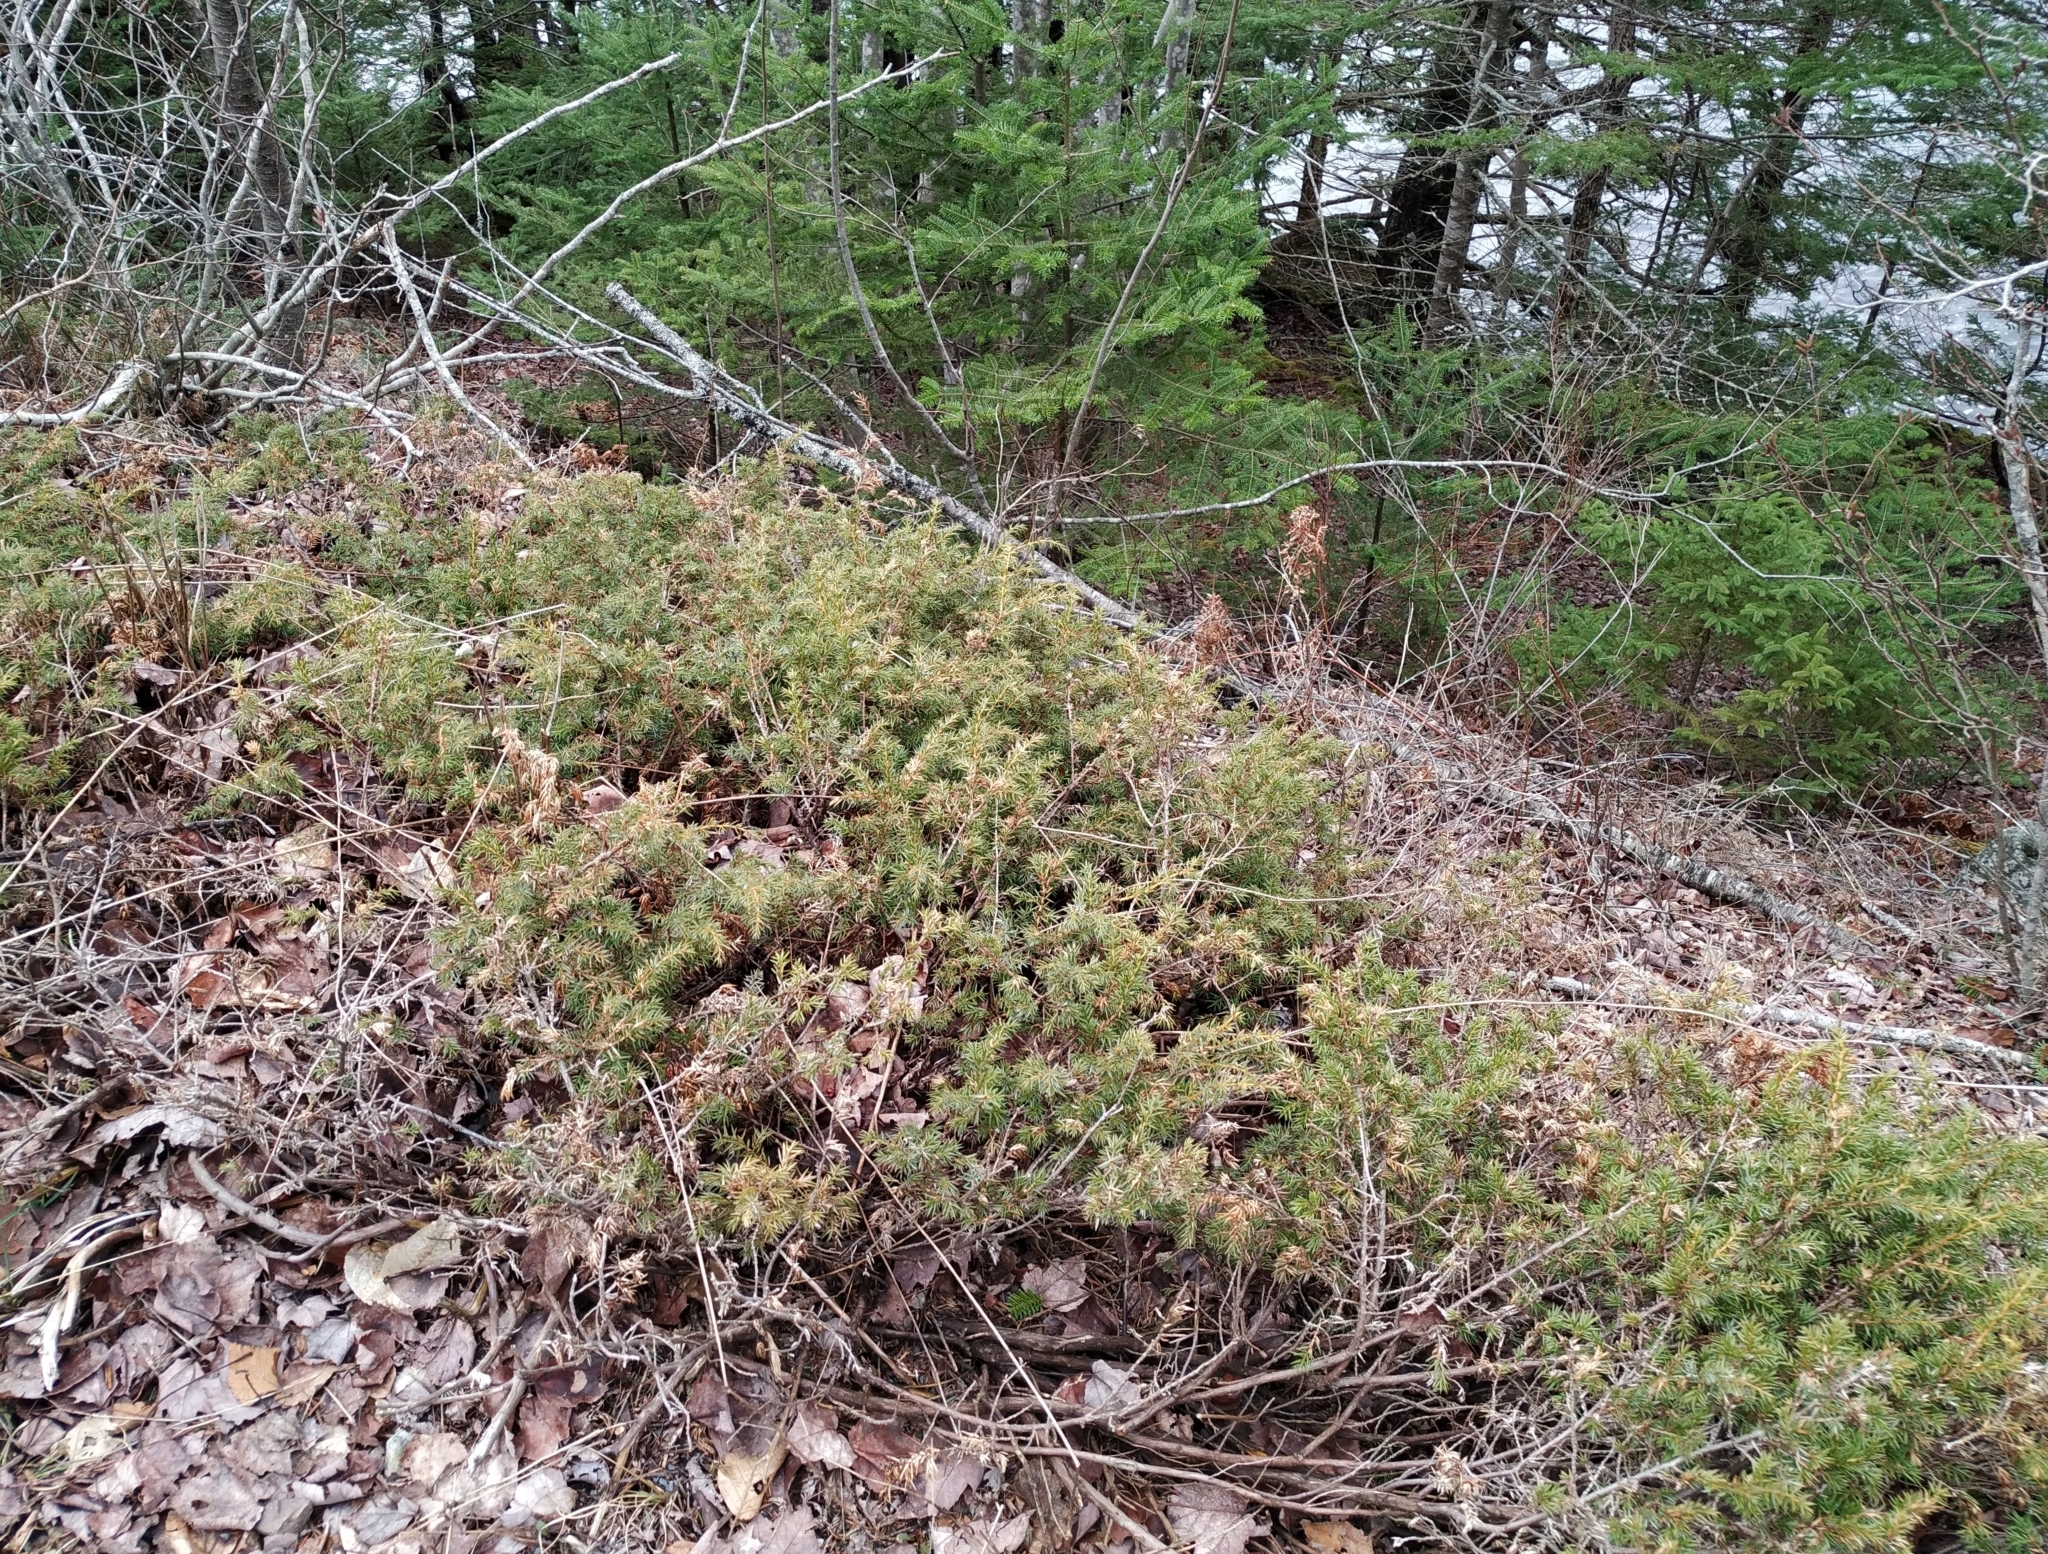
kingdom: Plantae
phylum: Tracheophyta
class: Pinopsida
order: Pinales
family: Cupressaceae
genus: Juniperus
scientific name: Juniperus communis
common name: Common juniper
